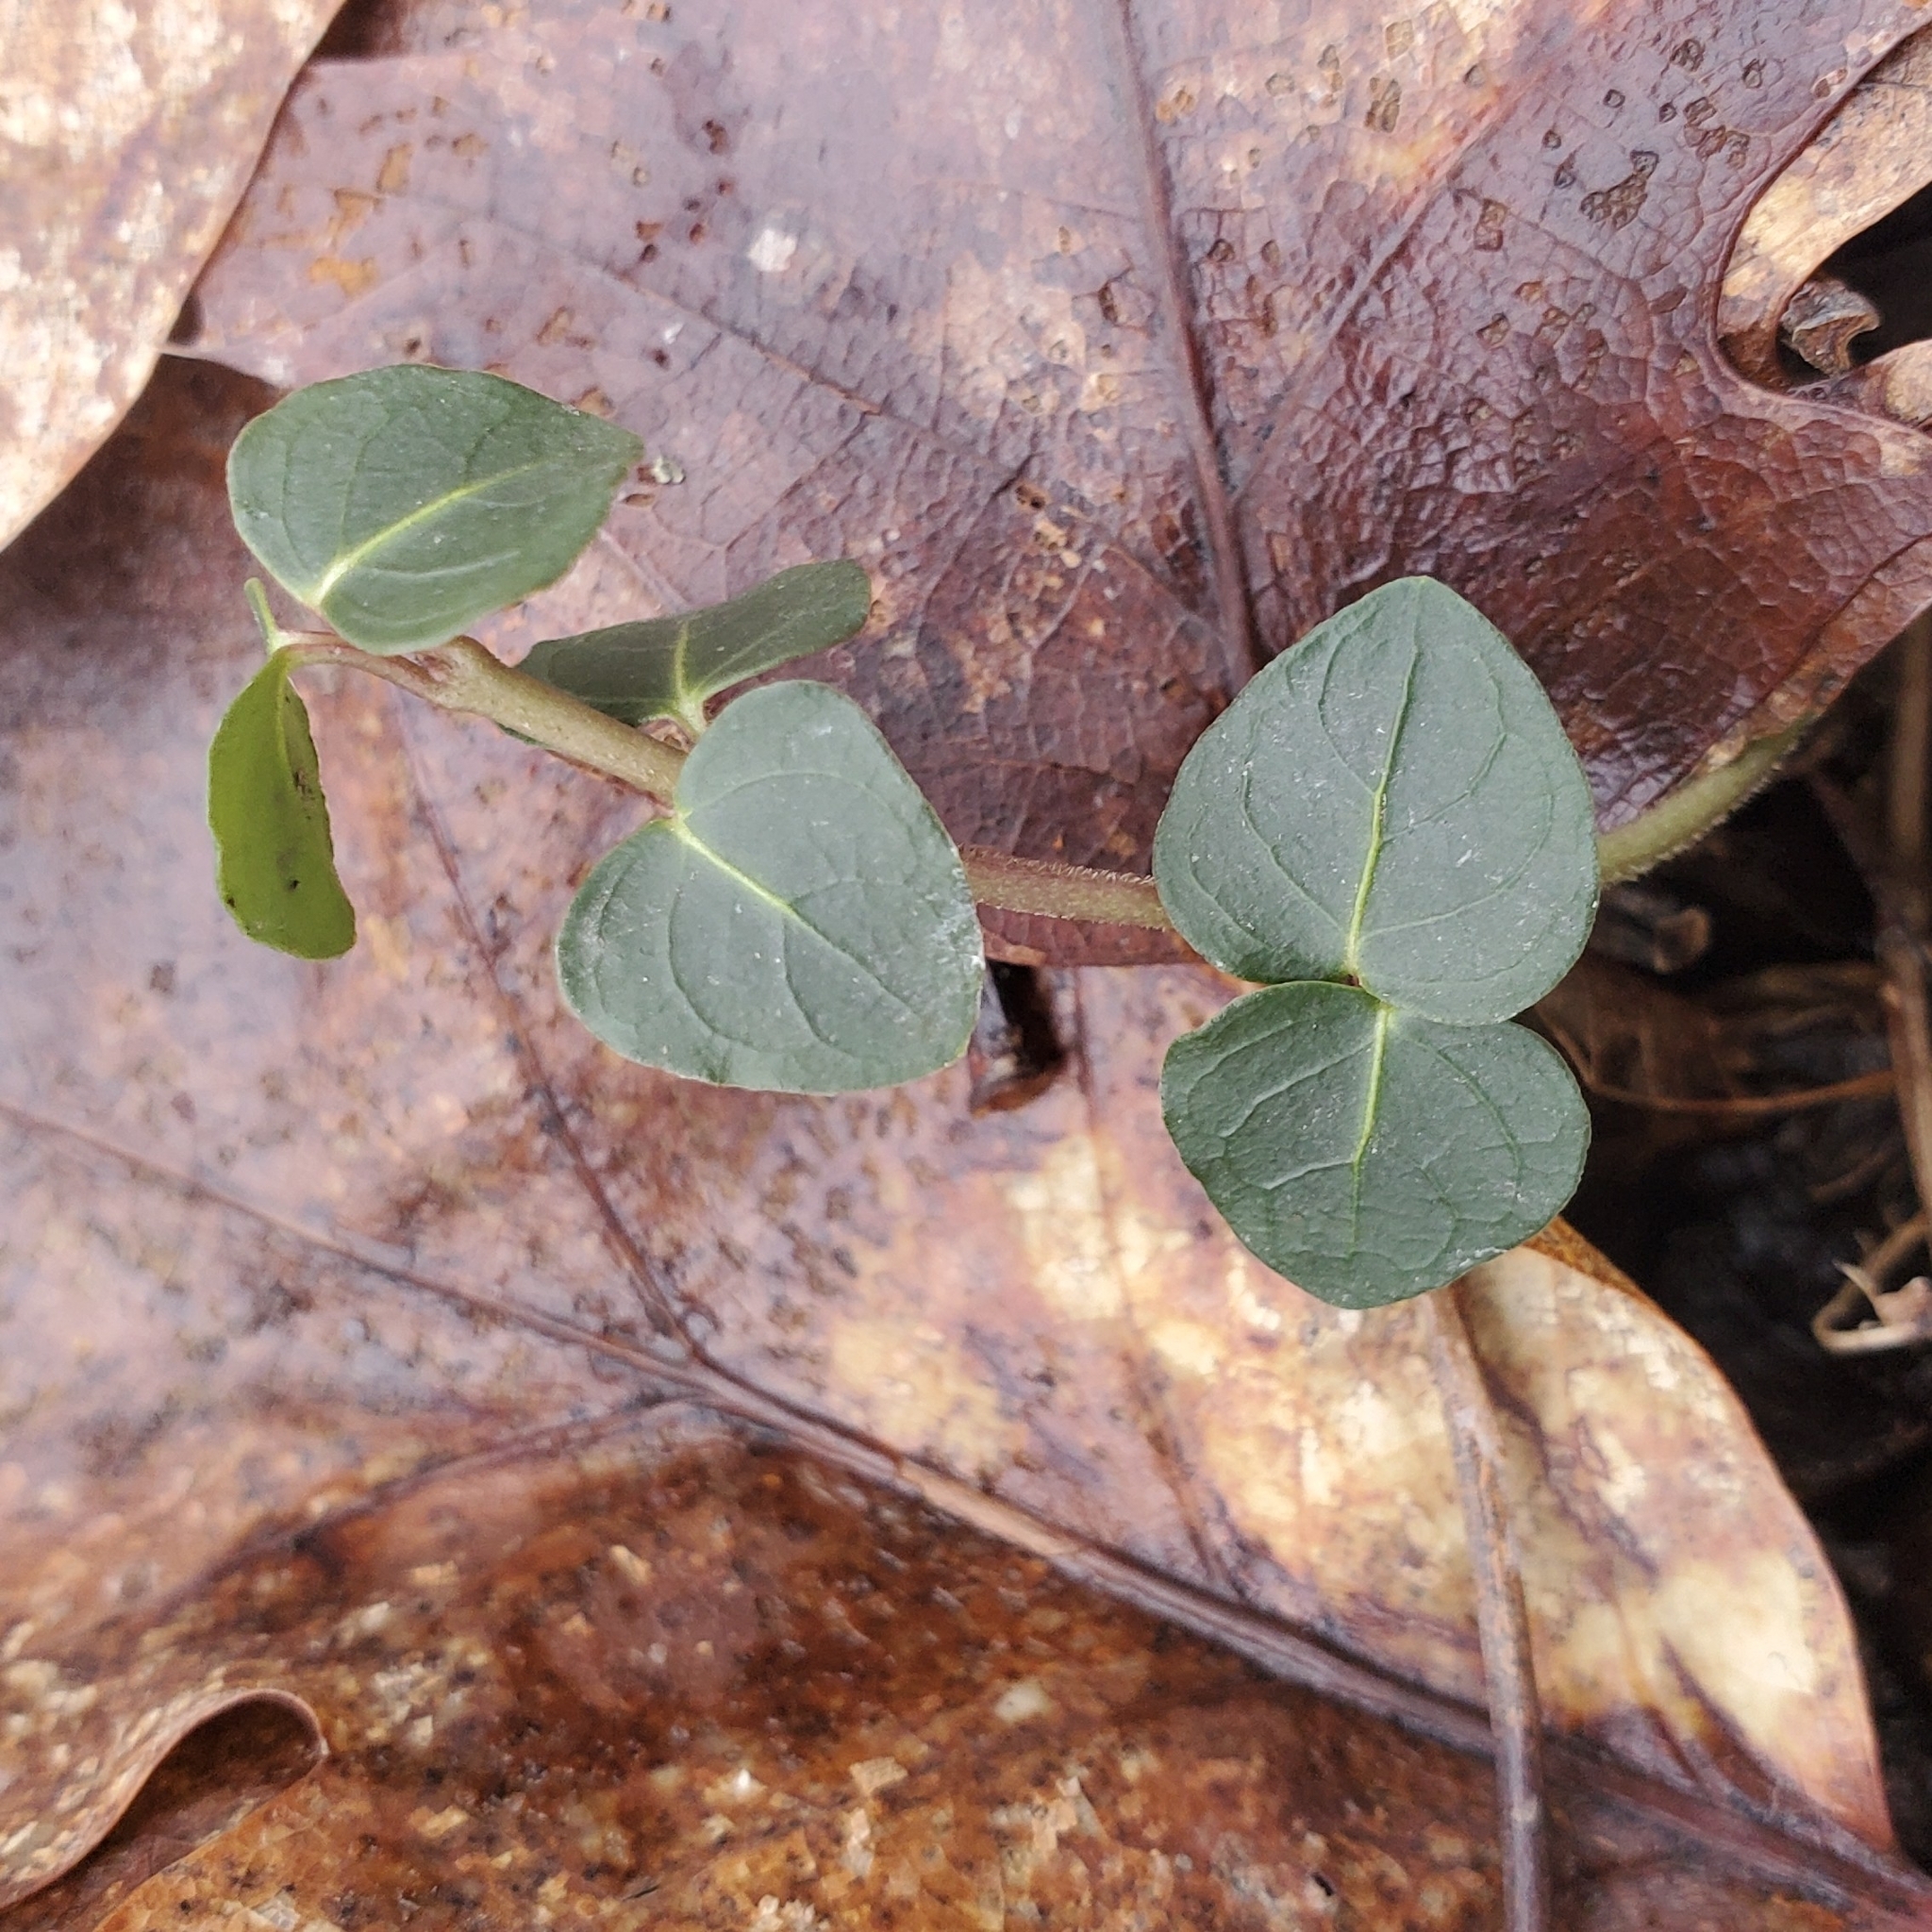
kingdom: Plantae
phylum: Tracheophyta
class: Magnoliopsida
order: Gentianales
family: Rubiaceae
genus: Mitchella
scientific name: Mitchella repens
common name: Partridge-berry
